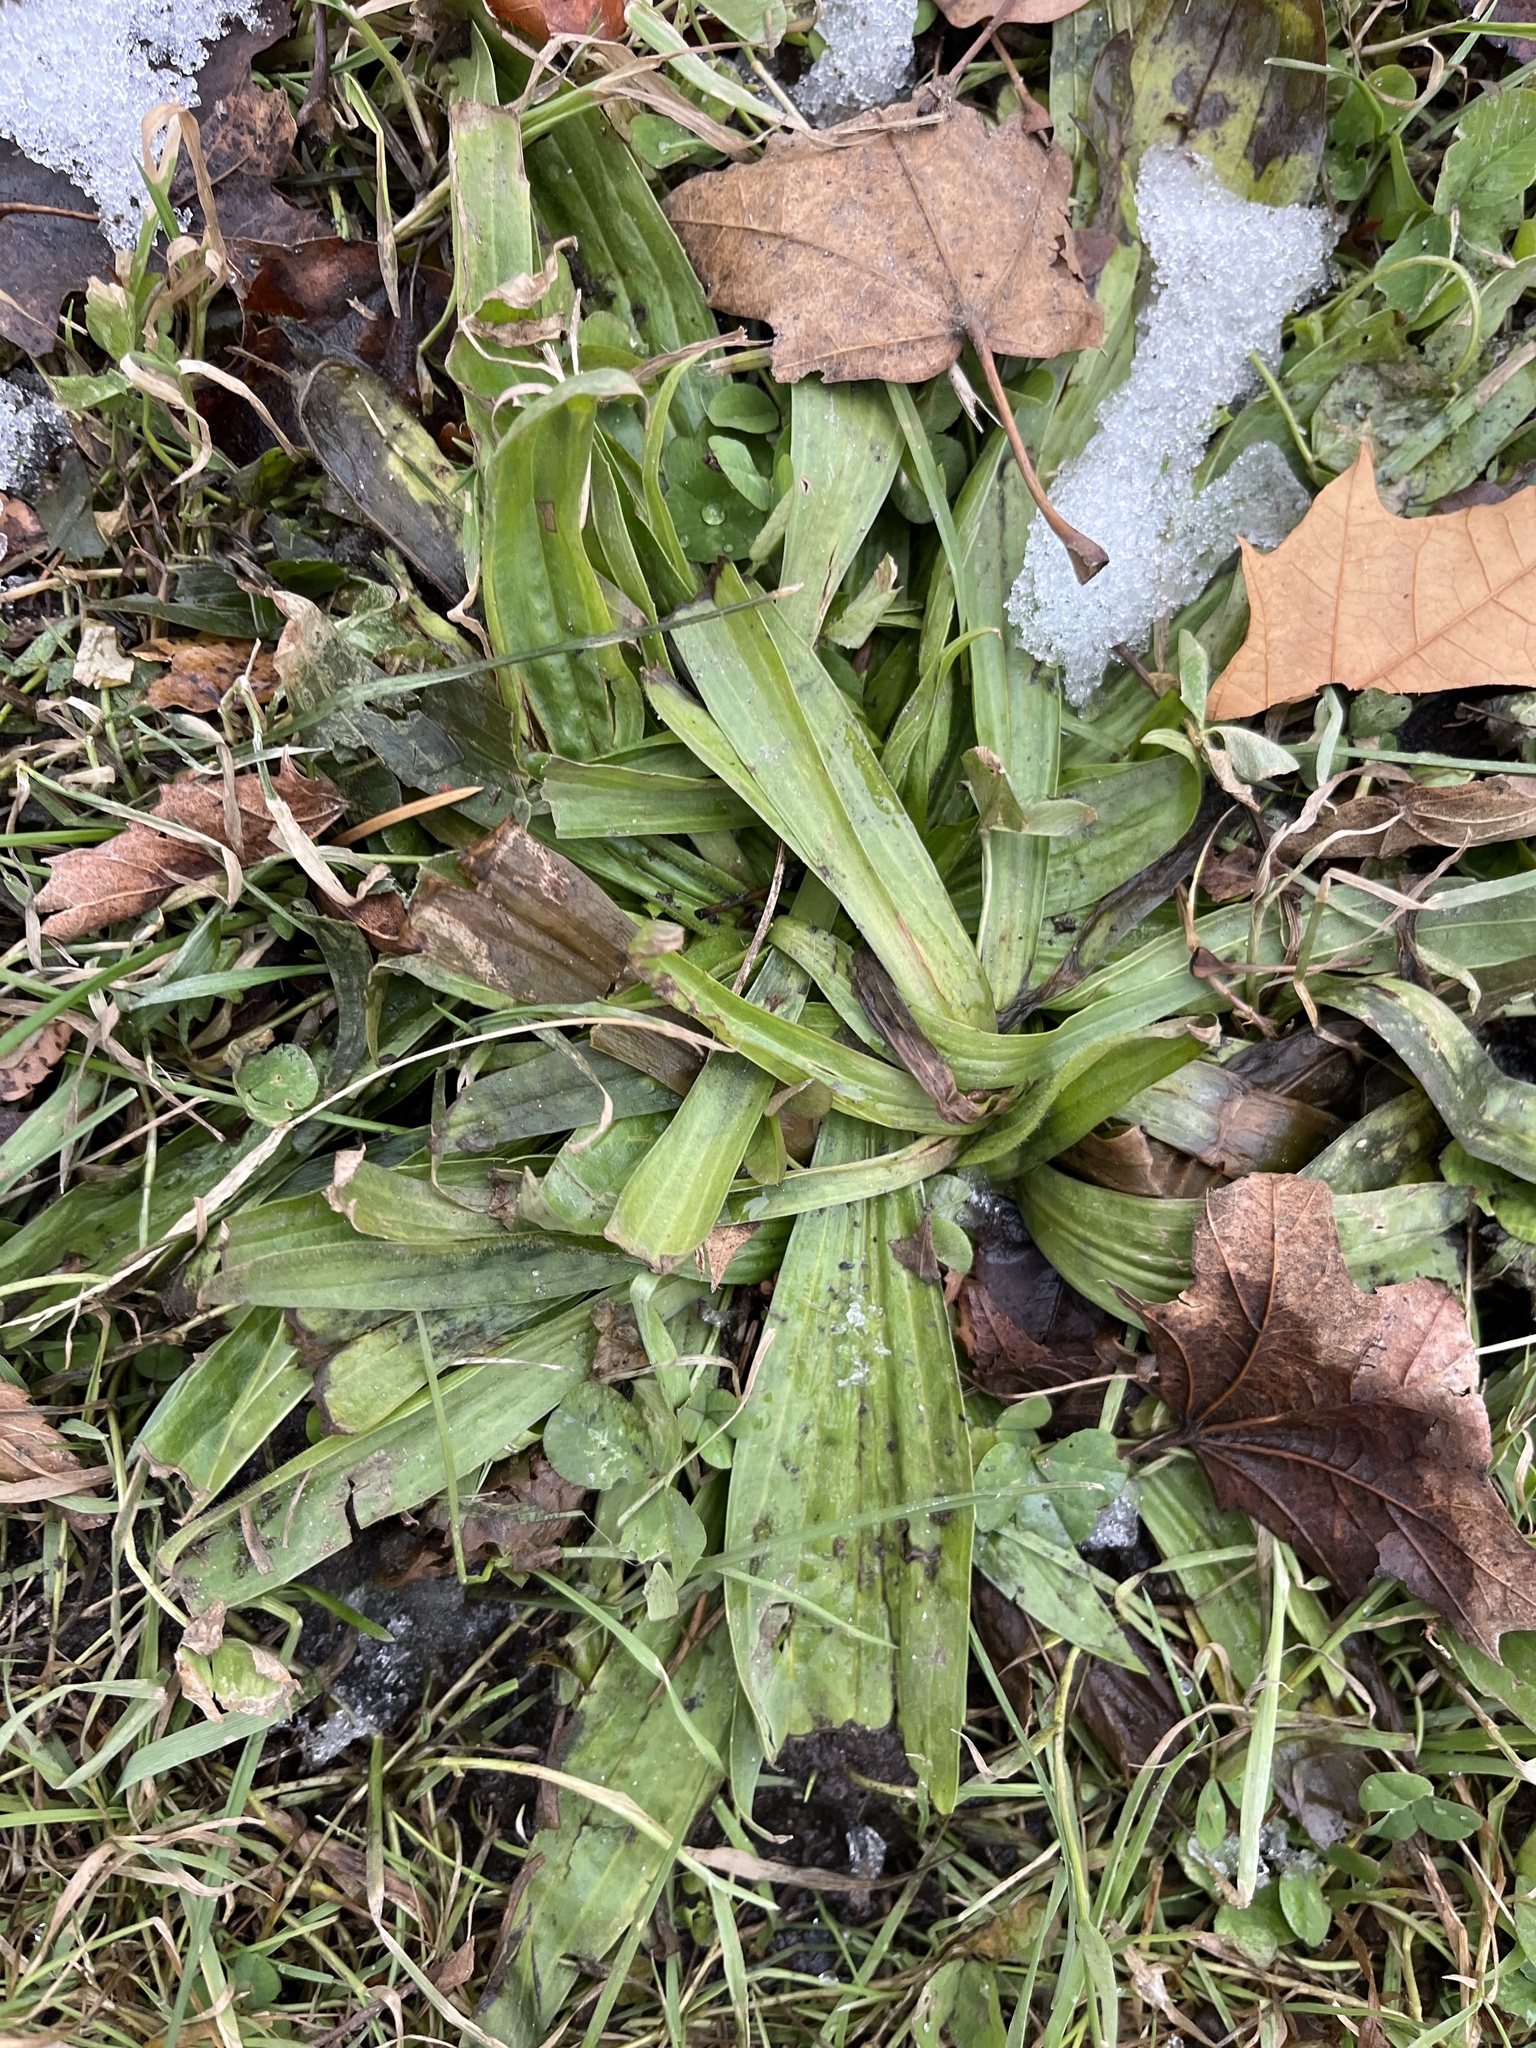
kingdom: Plantae
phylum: Tracheophyta
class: Magnoliopsida
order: Lamiales
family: Plantaginaceae
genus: Plantago
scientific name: Plantago lanceolata
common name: Ribwort plantain
